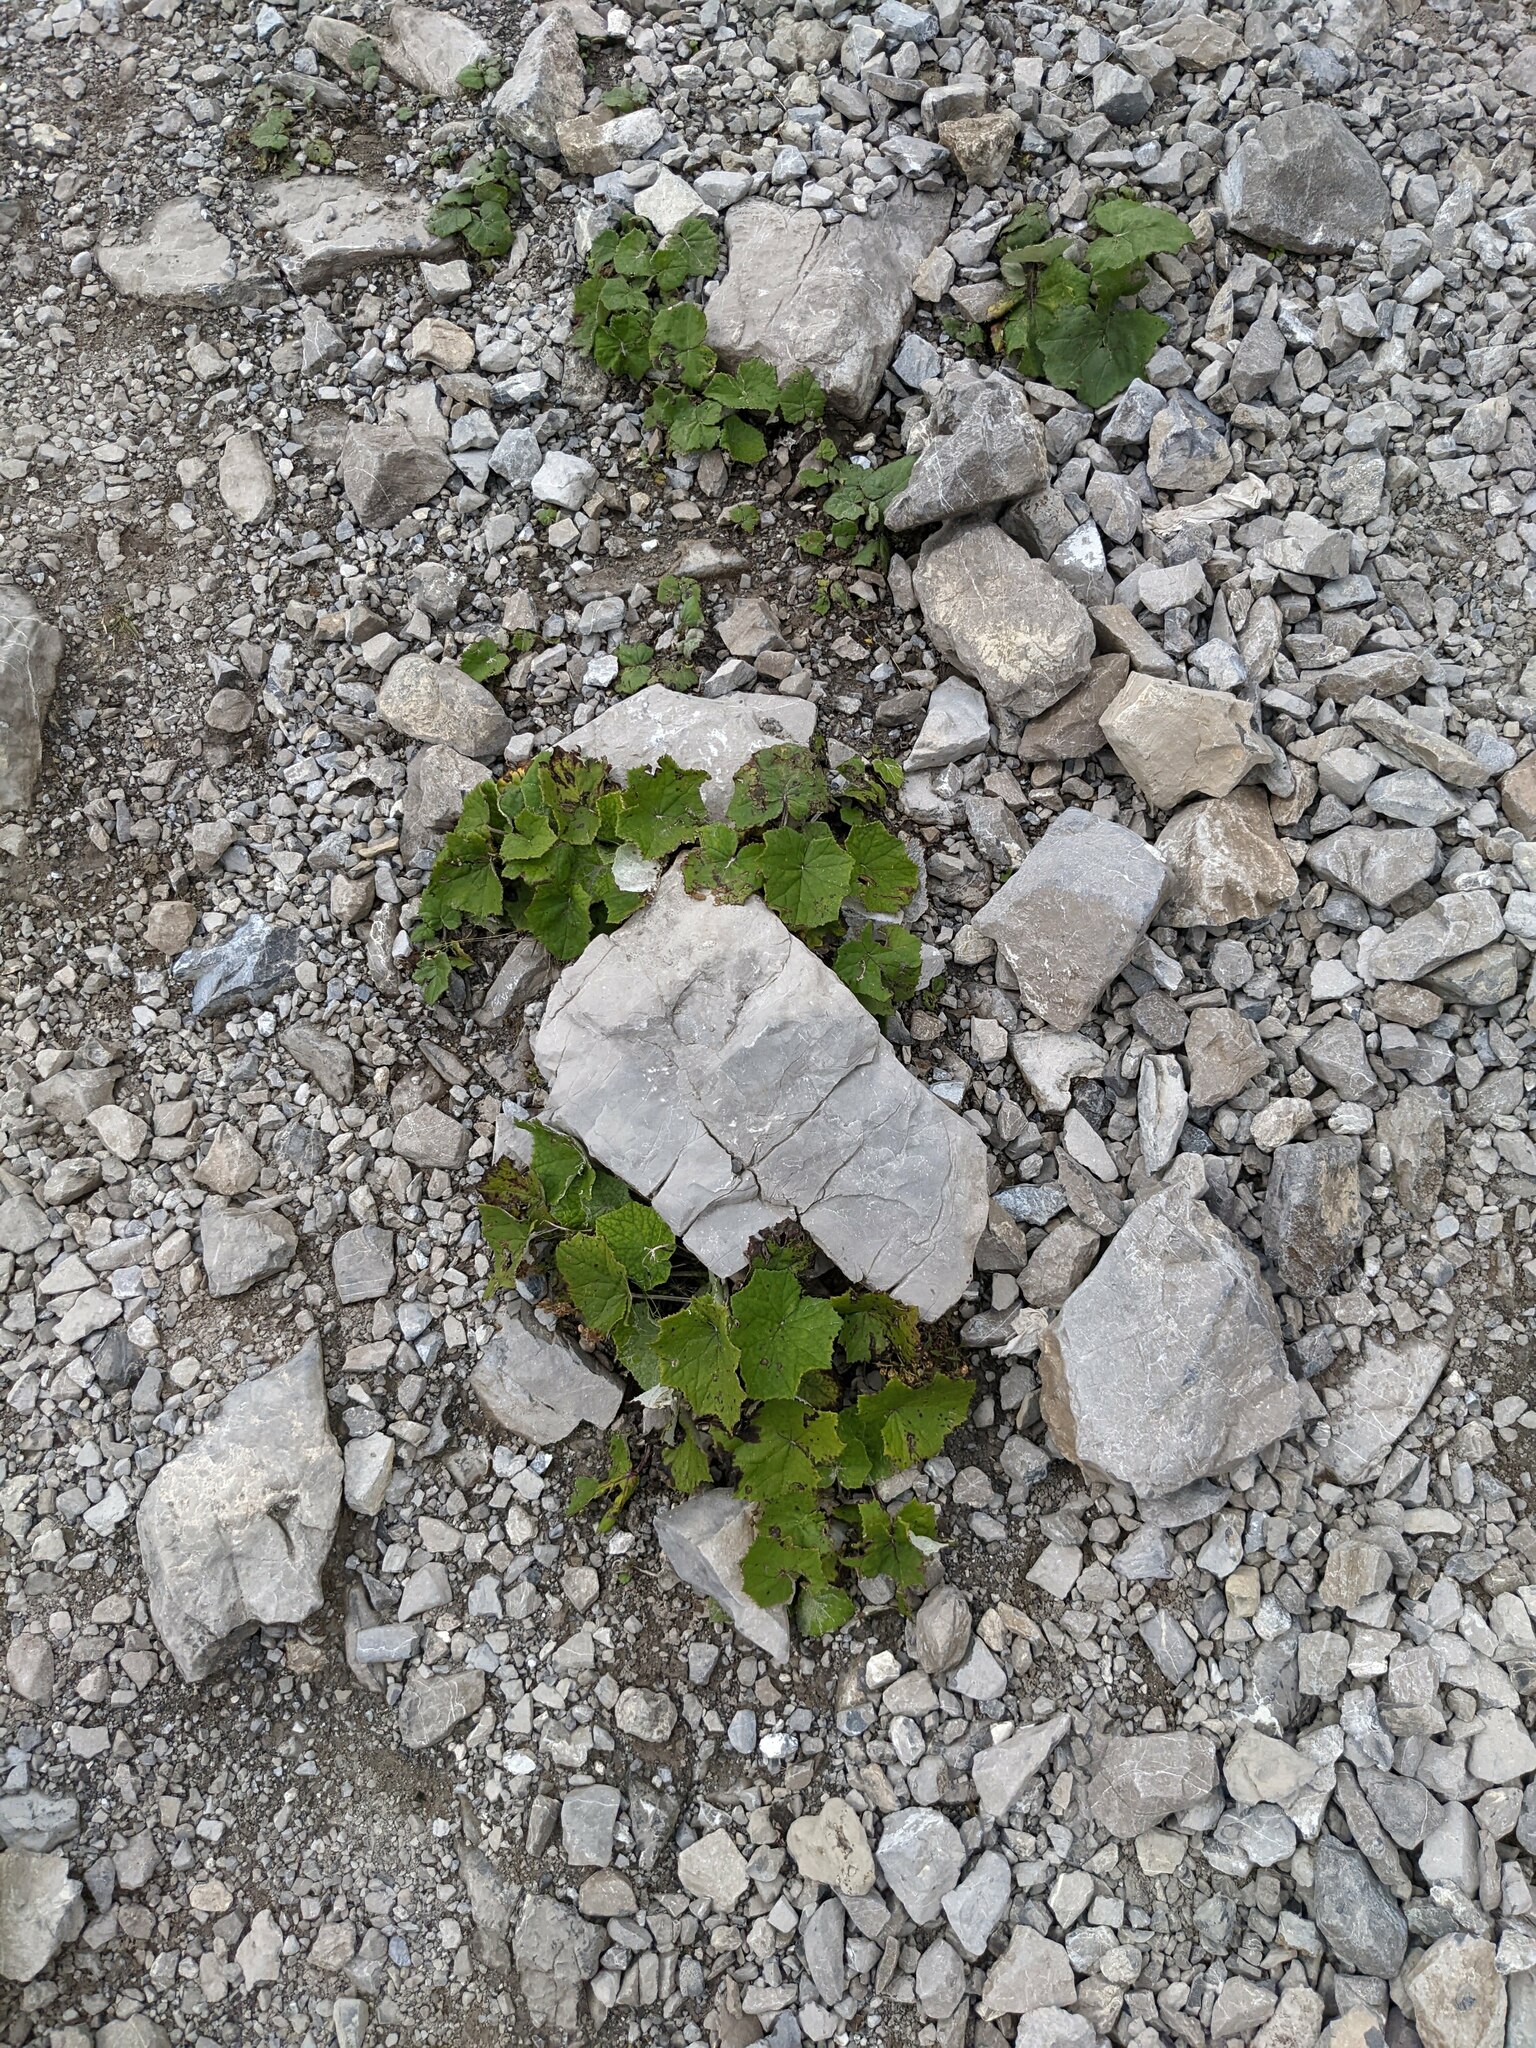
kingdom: Plantae
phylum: Tracheophyta
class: Magnoliopsida
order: Asterales
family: Asteraceae
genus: Tussilago
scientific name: Tussilago farfara
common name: Coltsfoot
